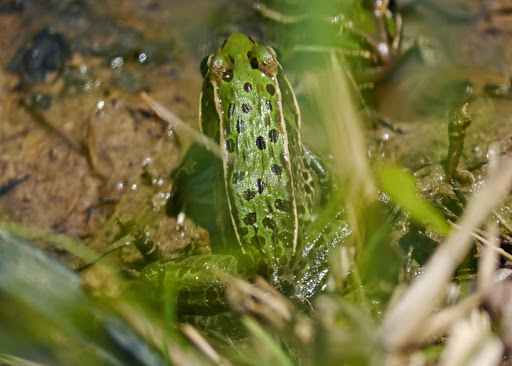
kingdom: Animalia
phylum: Chordata
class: Amphibia
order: Anura
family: Ranidae
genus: Lithobates
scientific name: Lithobates sphenocephalus
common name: Southern leopard frog
